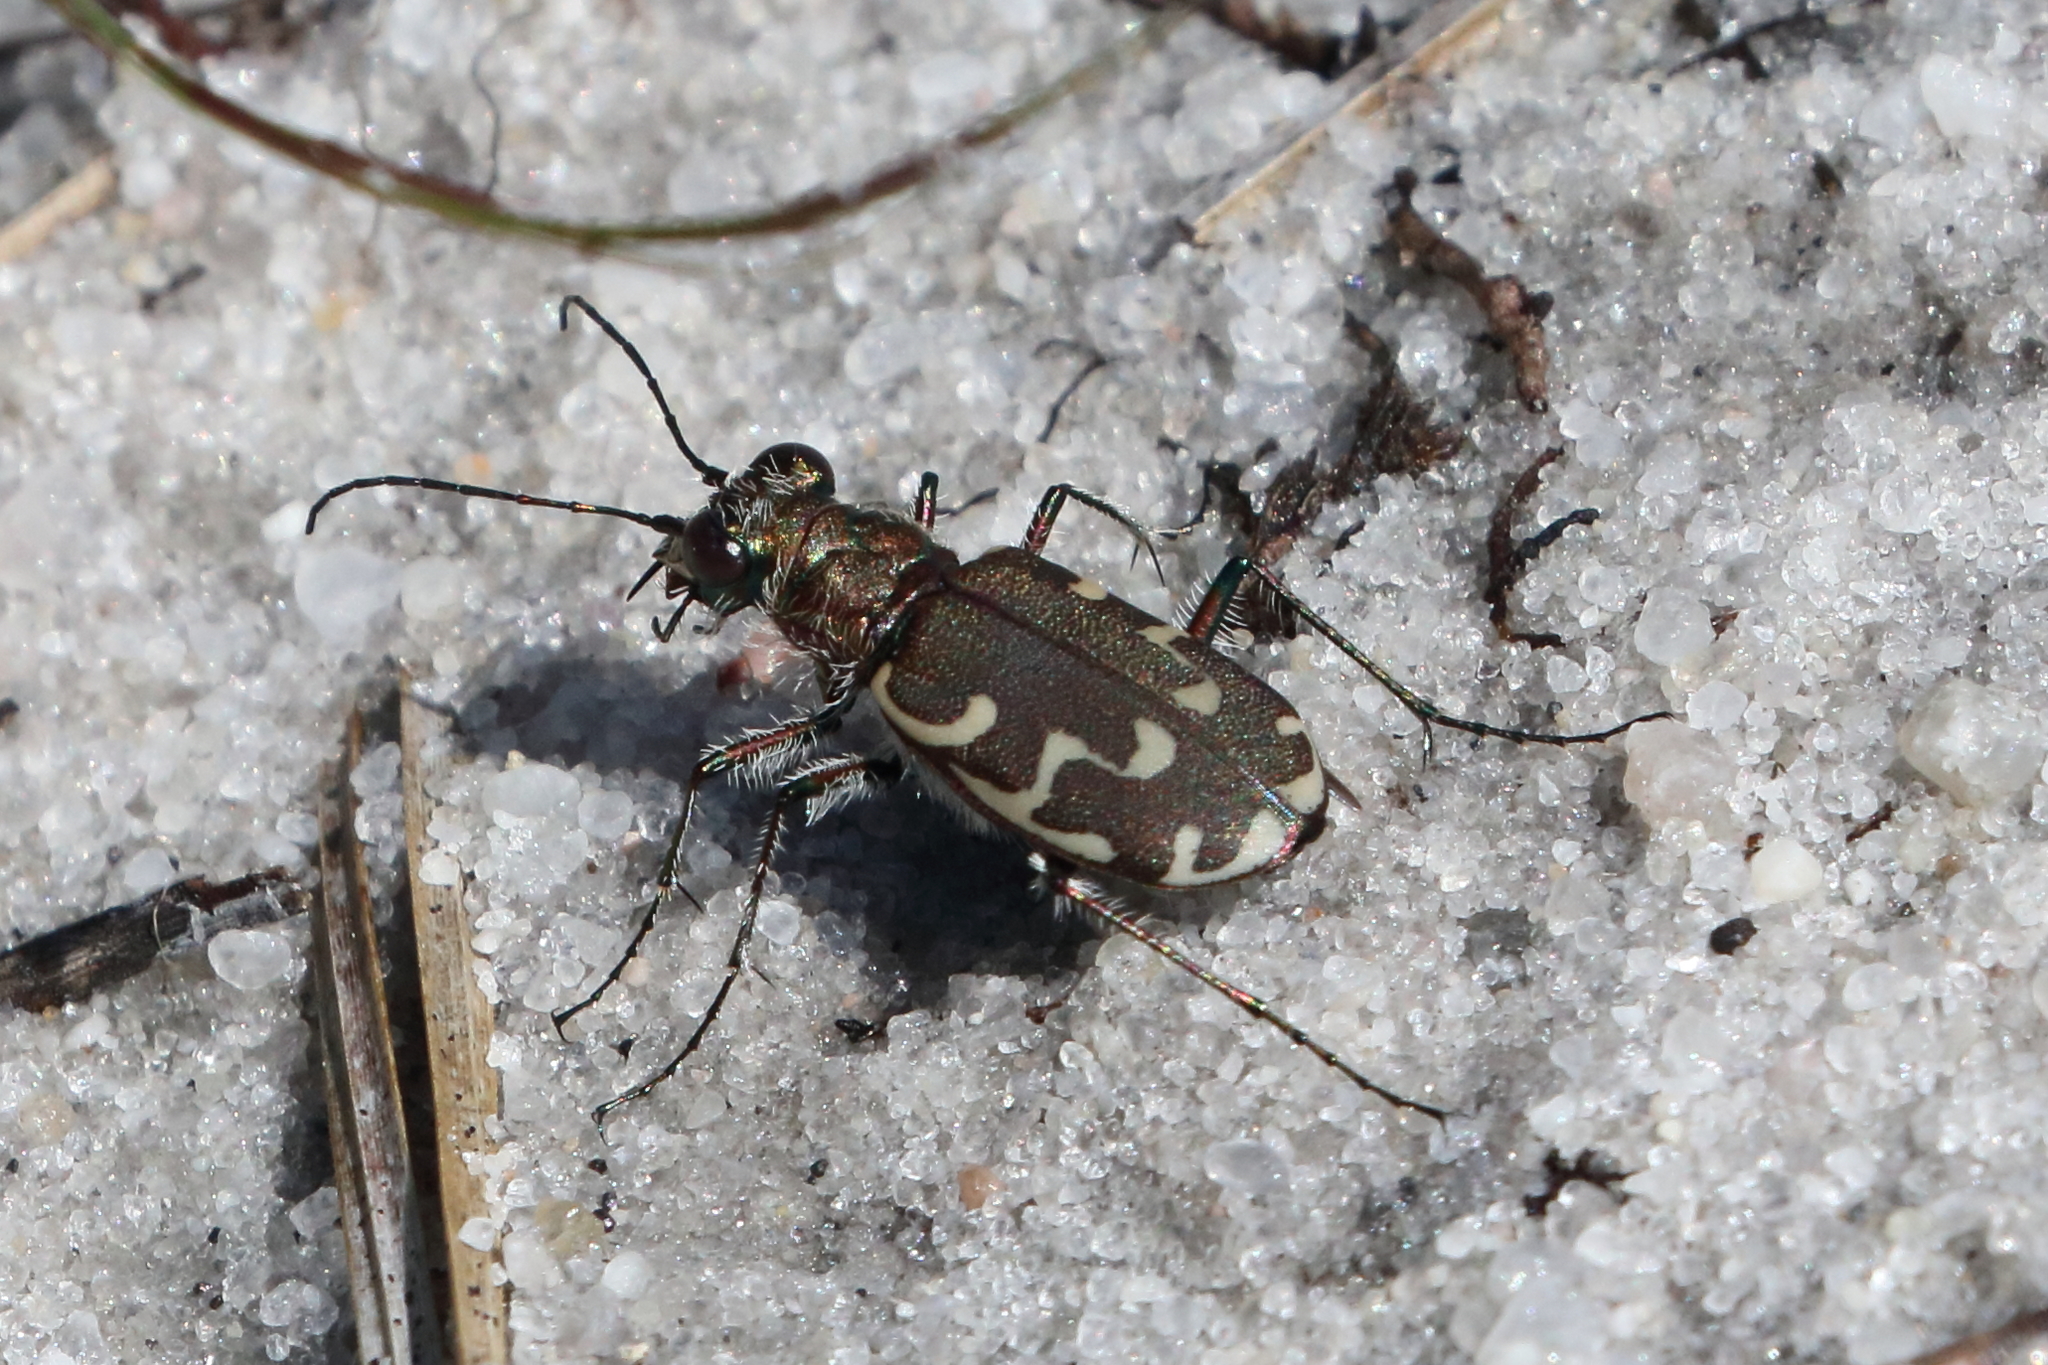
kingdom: Animalia
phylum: Arthropoda
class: Insecta
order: Coleoptera
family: Carabidae
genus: Cicindela
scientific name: Cicindela repanda
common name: Bronzed tiger beetle
